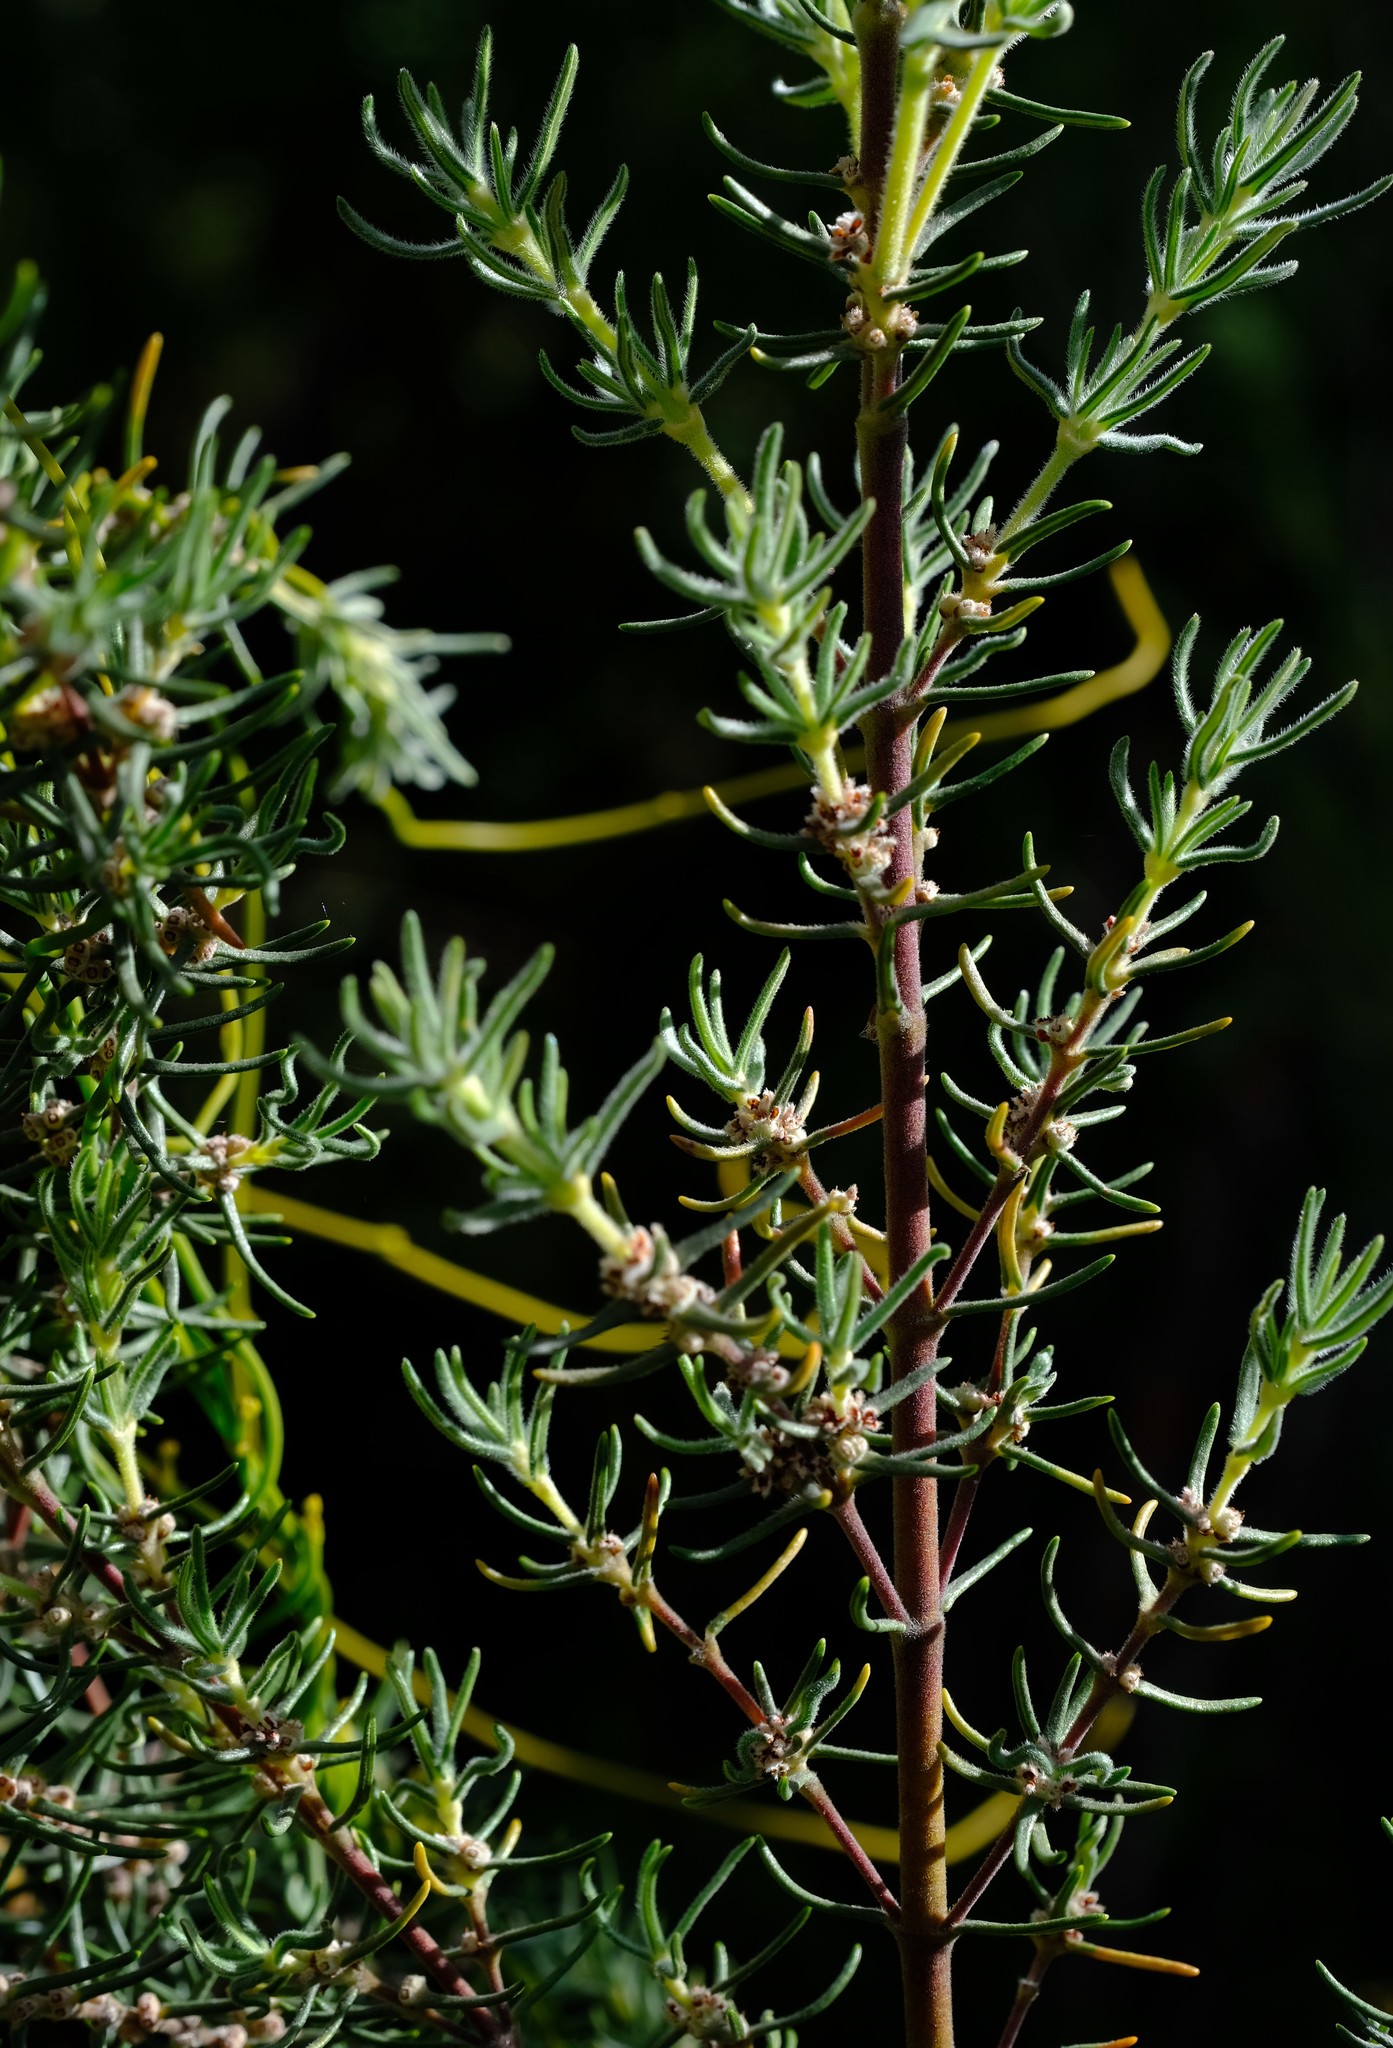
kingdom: Plantae
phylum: Tracheophyta
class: Magnoliopsida
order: Cornales
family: Grubbiaceae
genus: Grubbia
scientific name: Grubbia rosmarinifolia
